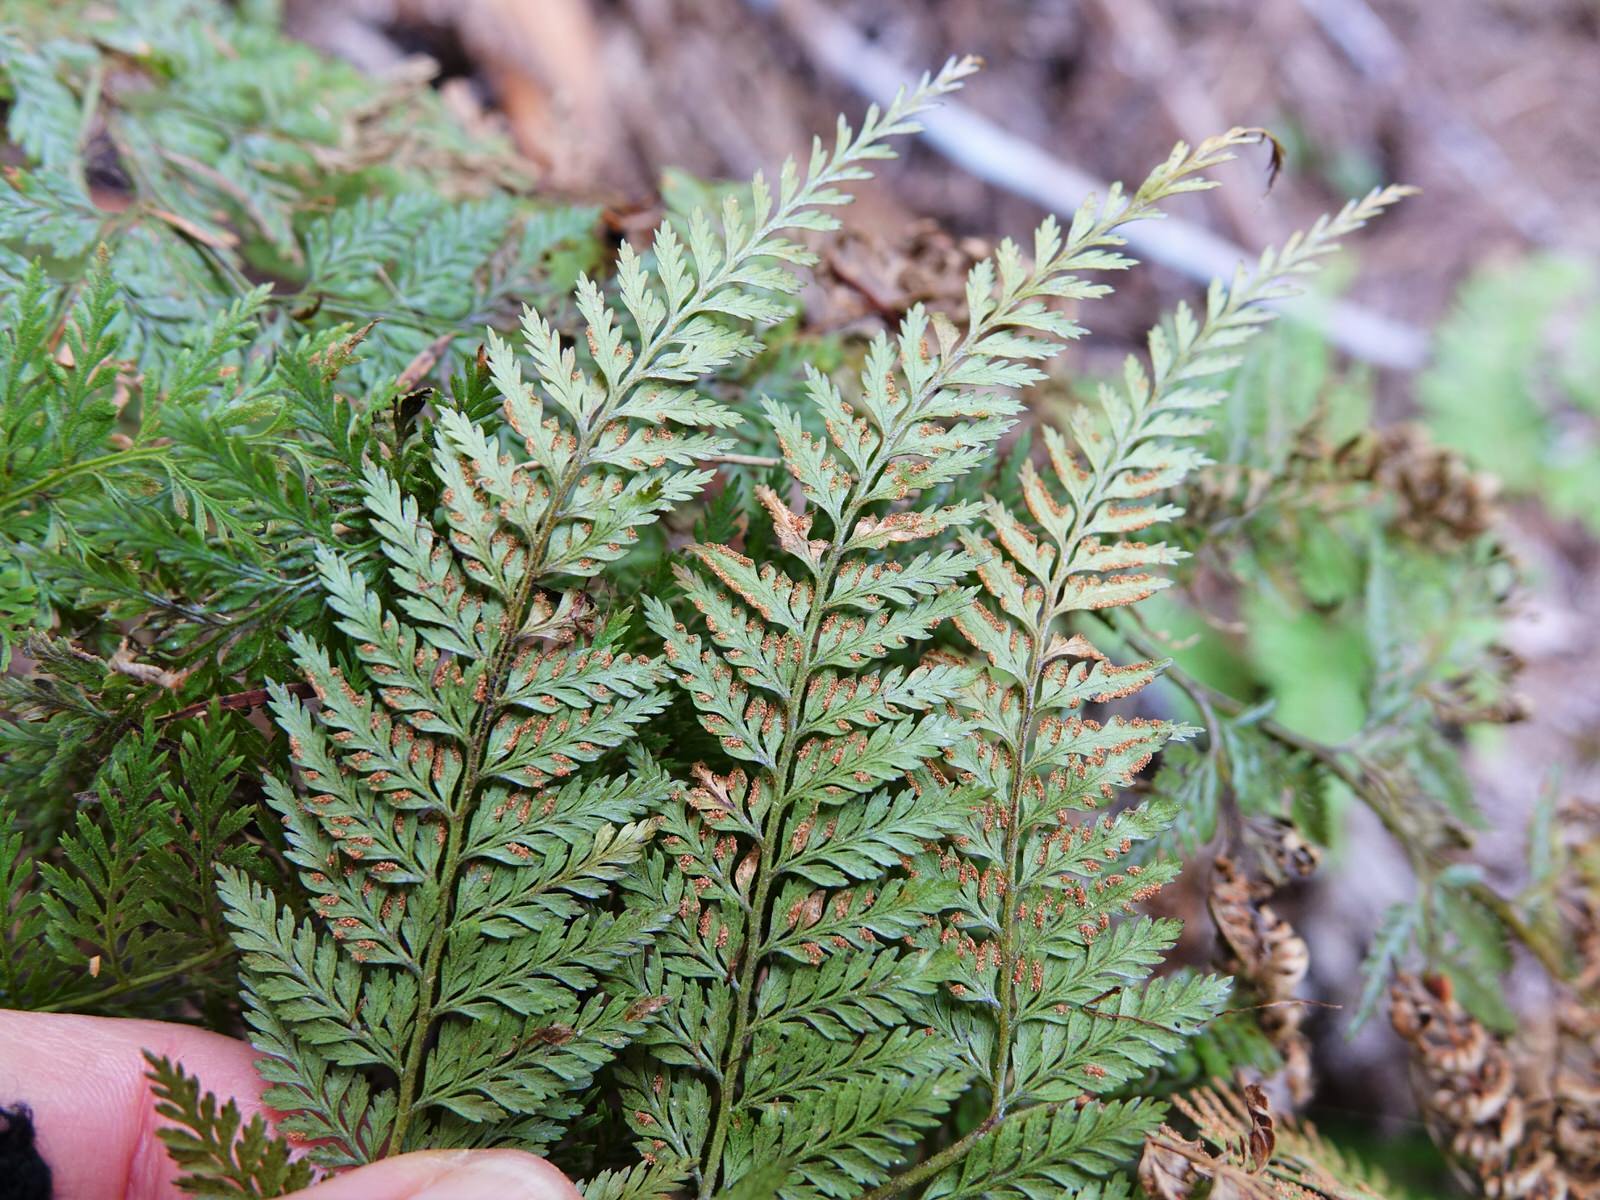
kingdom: Plantae
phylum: Tracheophyta
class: Polypodiopsida
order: Polypodiales
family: Dennstaedtiaceae
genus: Paesia
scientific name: Paesia scaberula
